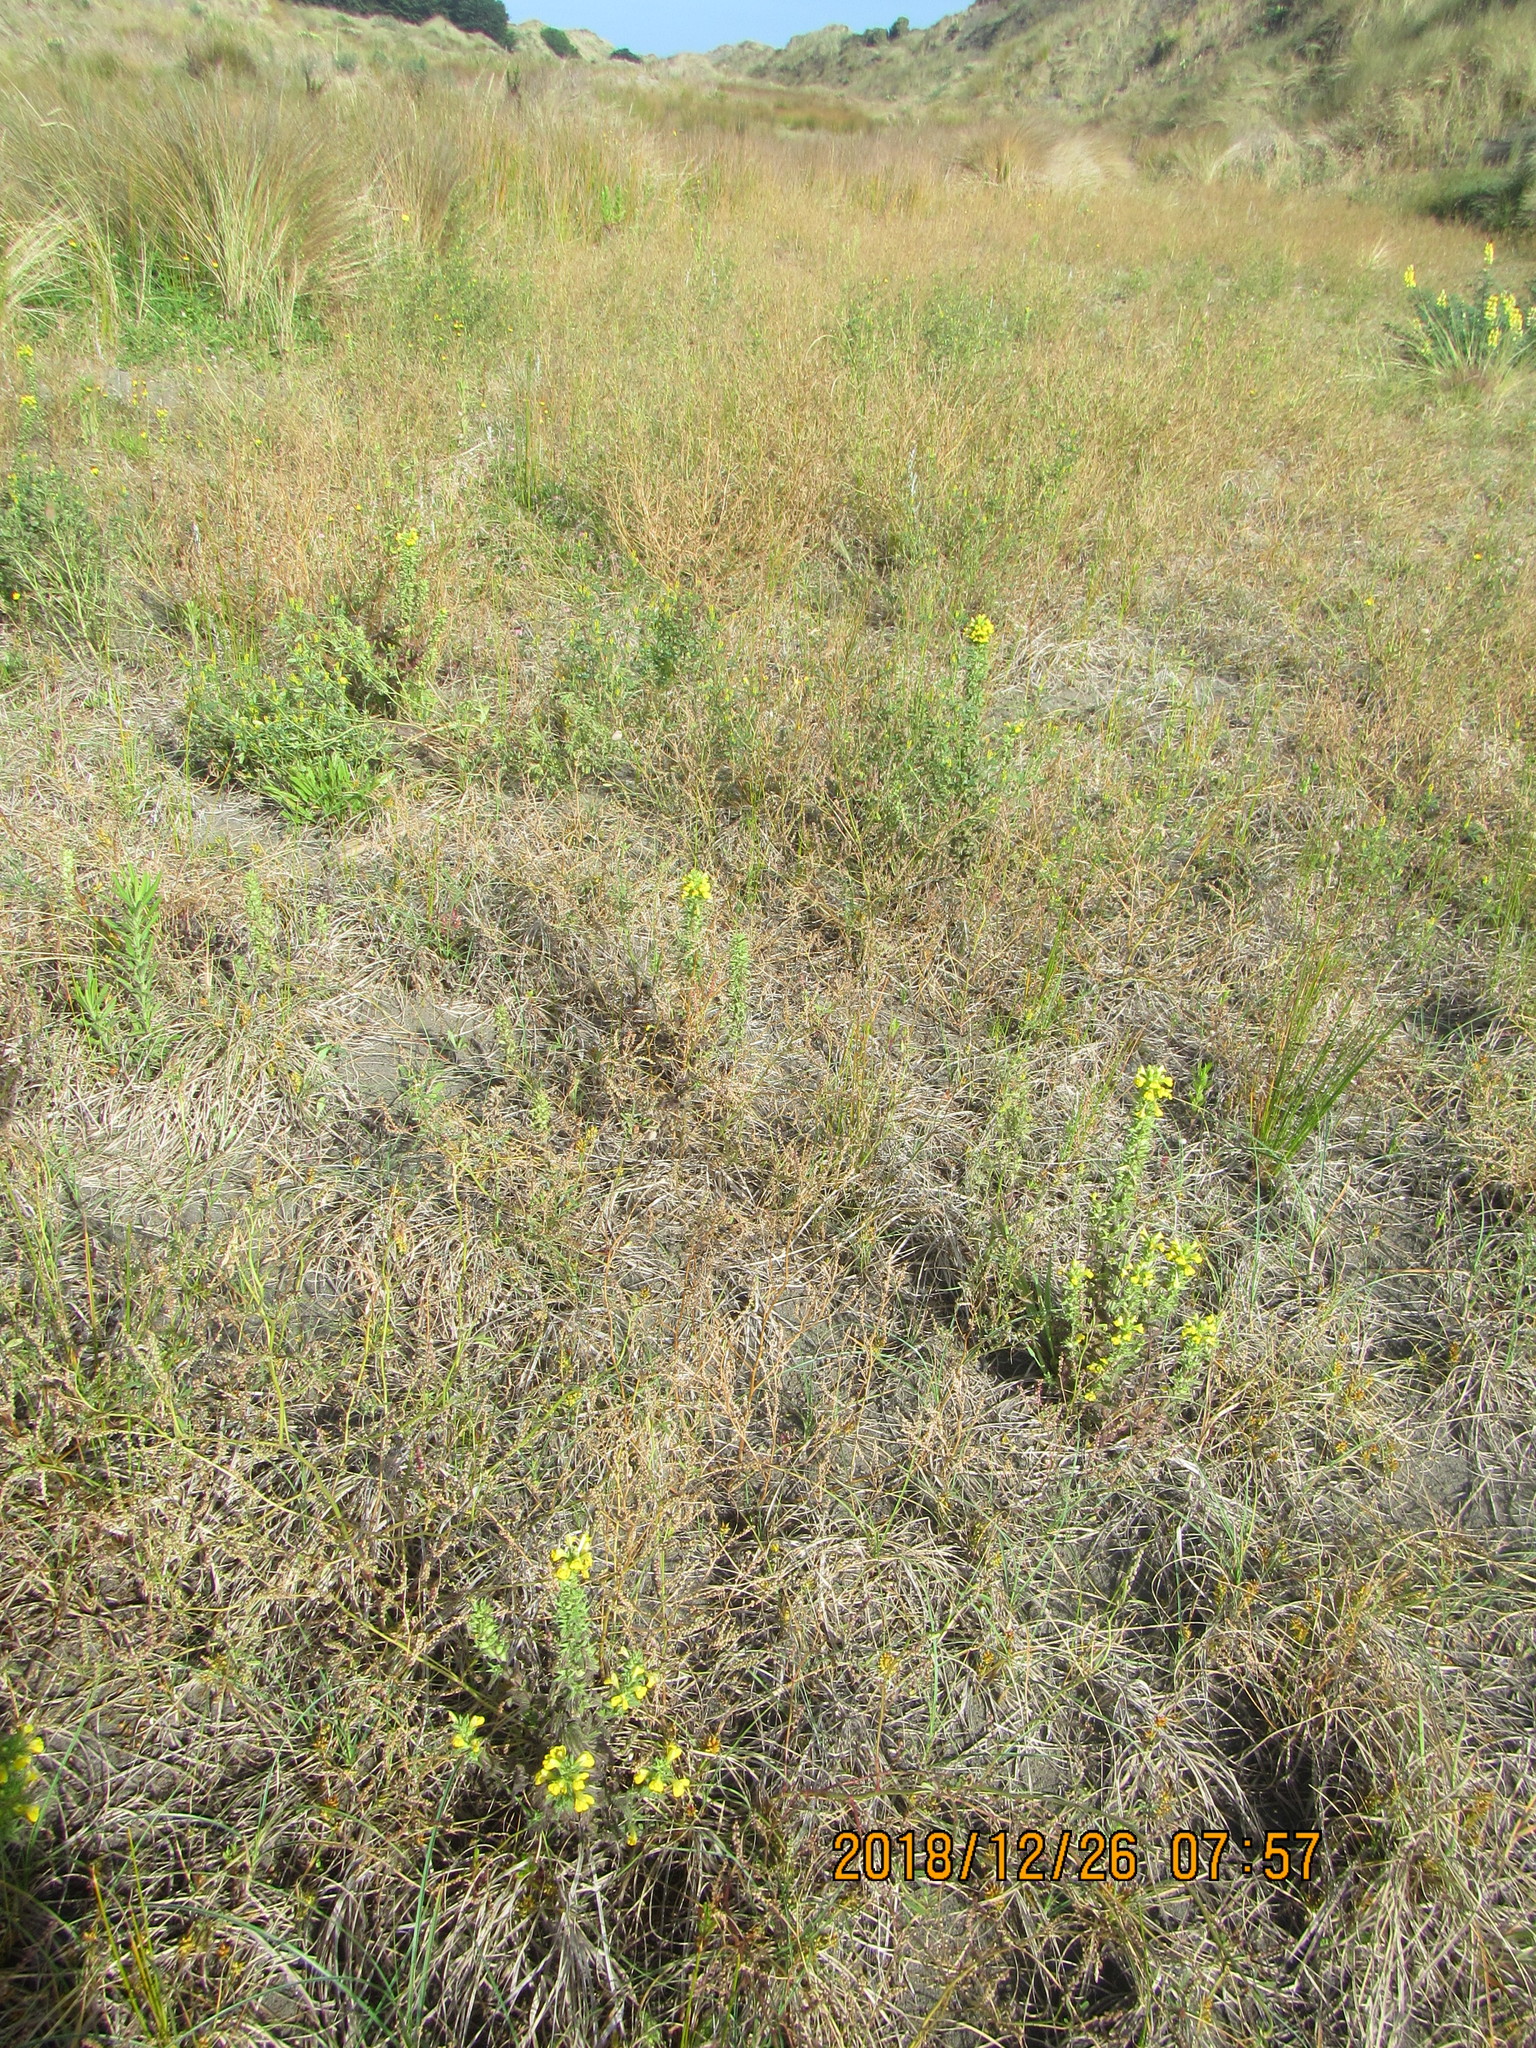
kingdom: Plantae
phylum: Tracheophyta
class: Magnoliopsida
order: Lamiales
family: Orobanchaceae
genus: Bellardia
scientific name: Bellardia viscosa
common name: Sticky parentucellia
